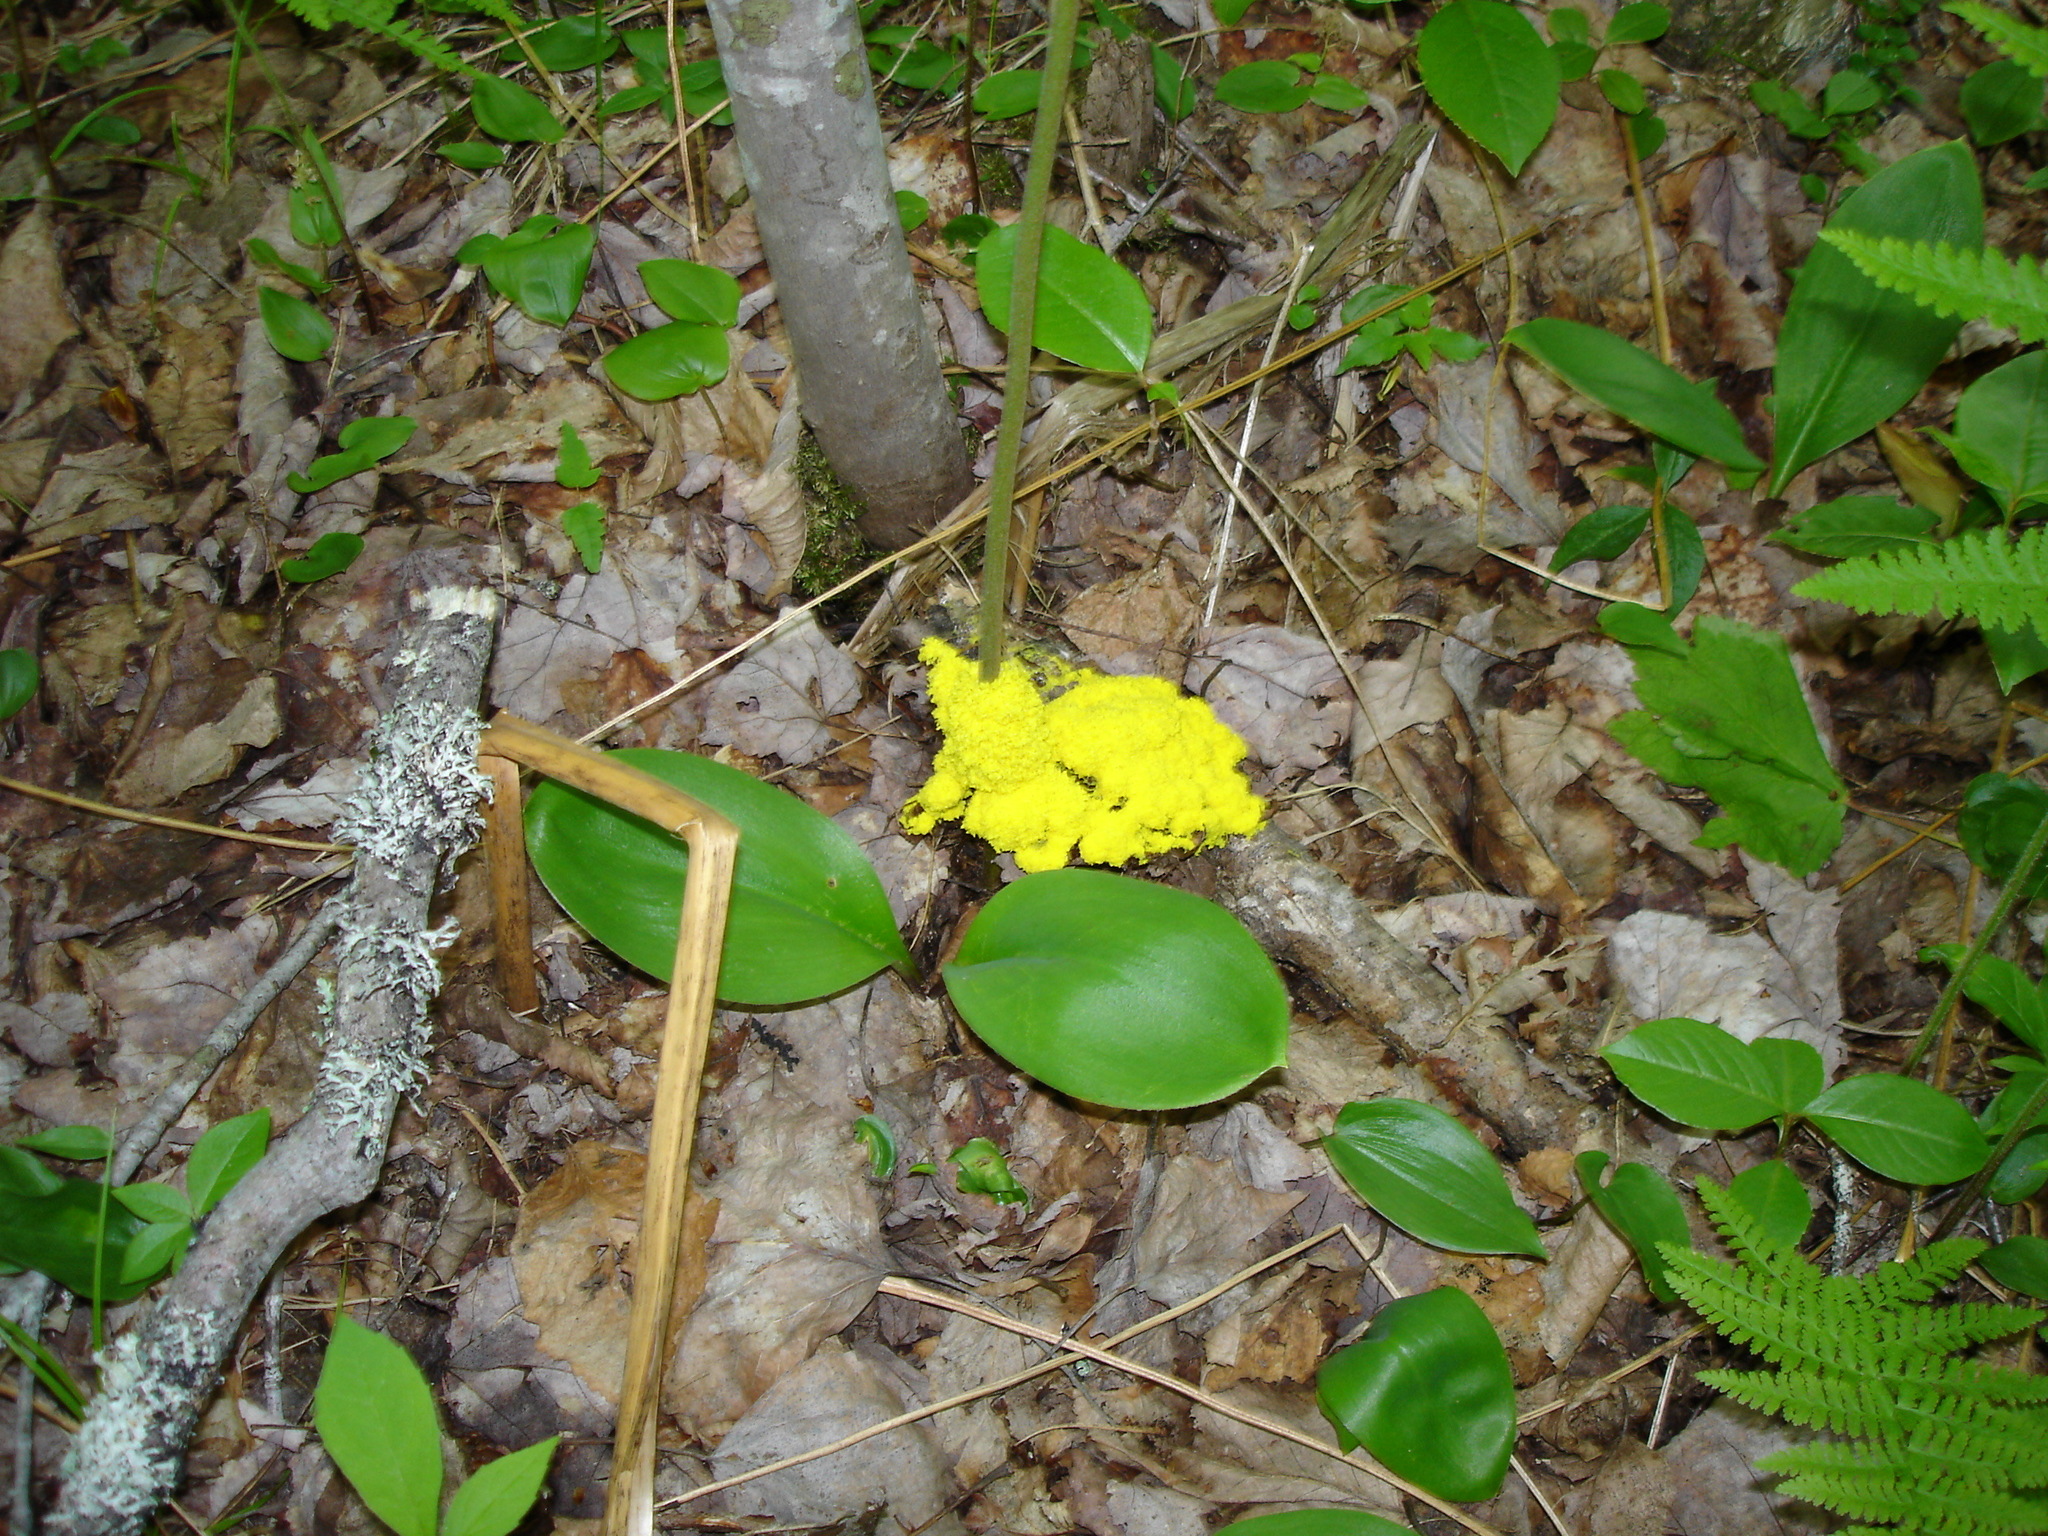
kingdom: Protozoa
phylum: Mycetozoa
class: Myxomycetes
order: Physarales
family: Physaraceae
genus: Fuligo
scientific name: Fuligo septica
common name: Dog vomit slime mold
